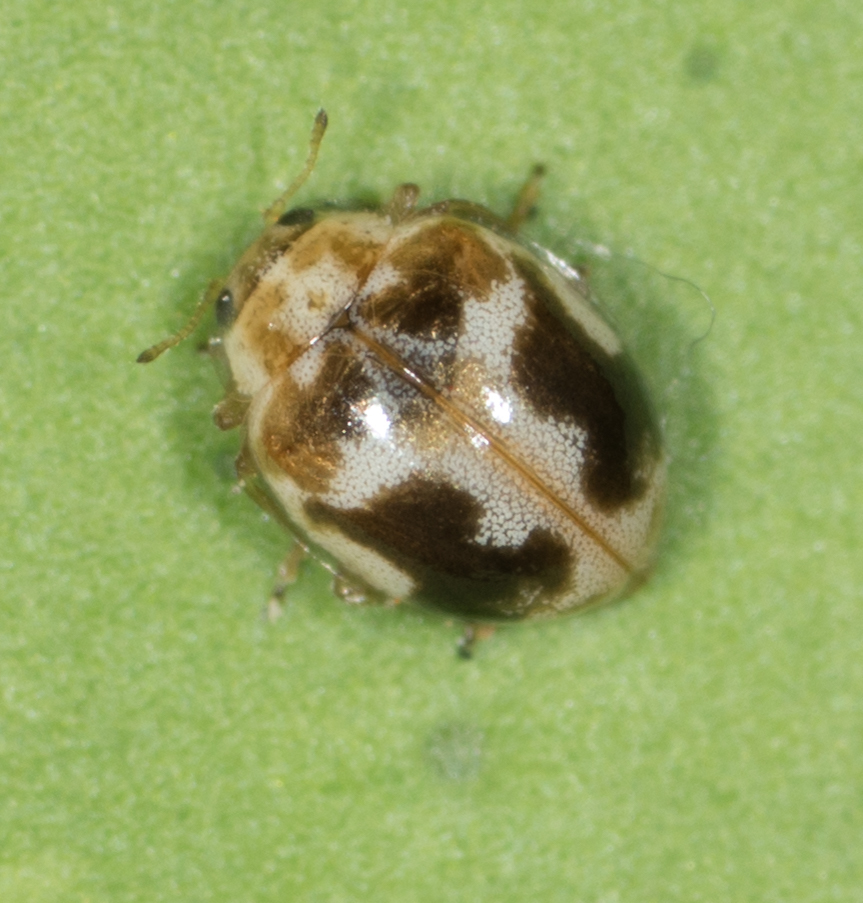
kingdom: Animalia
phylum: Arthropoda
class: Insecta
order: Coleoptera
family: Coccinellidae
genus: Psyllobora
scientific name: Psyllobora renifer
